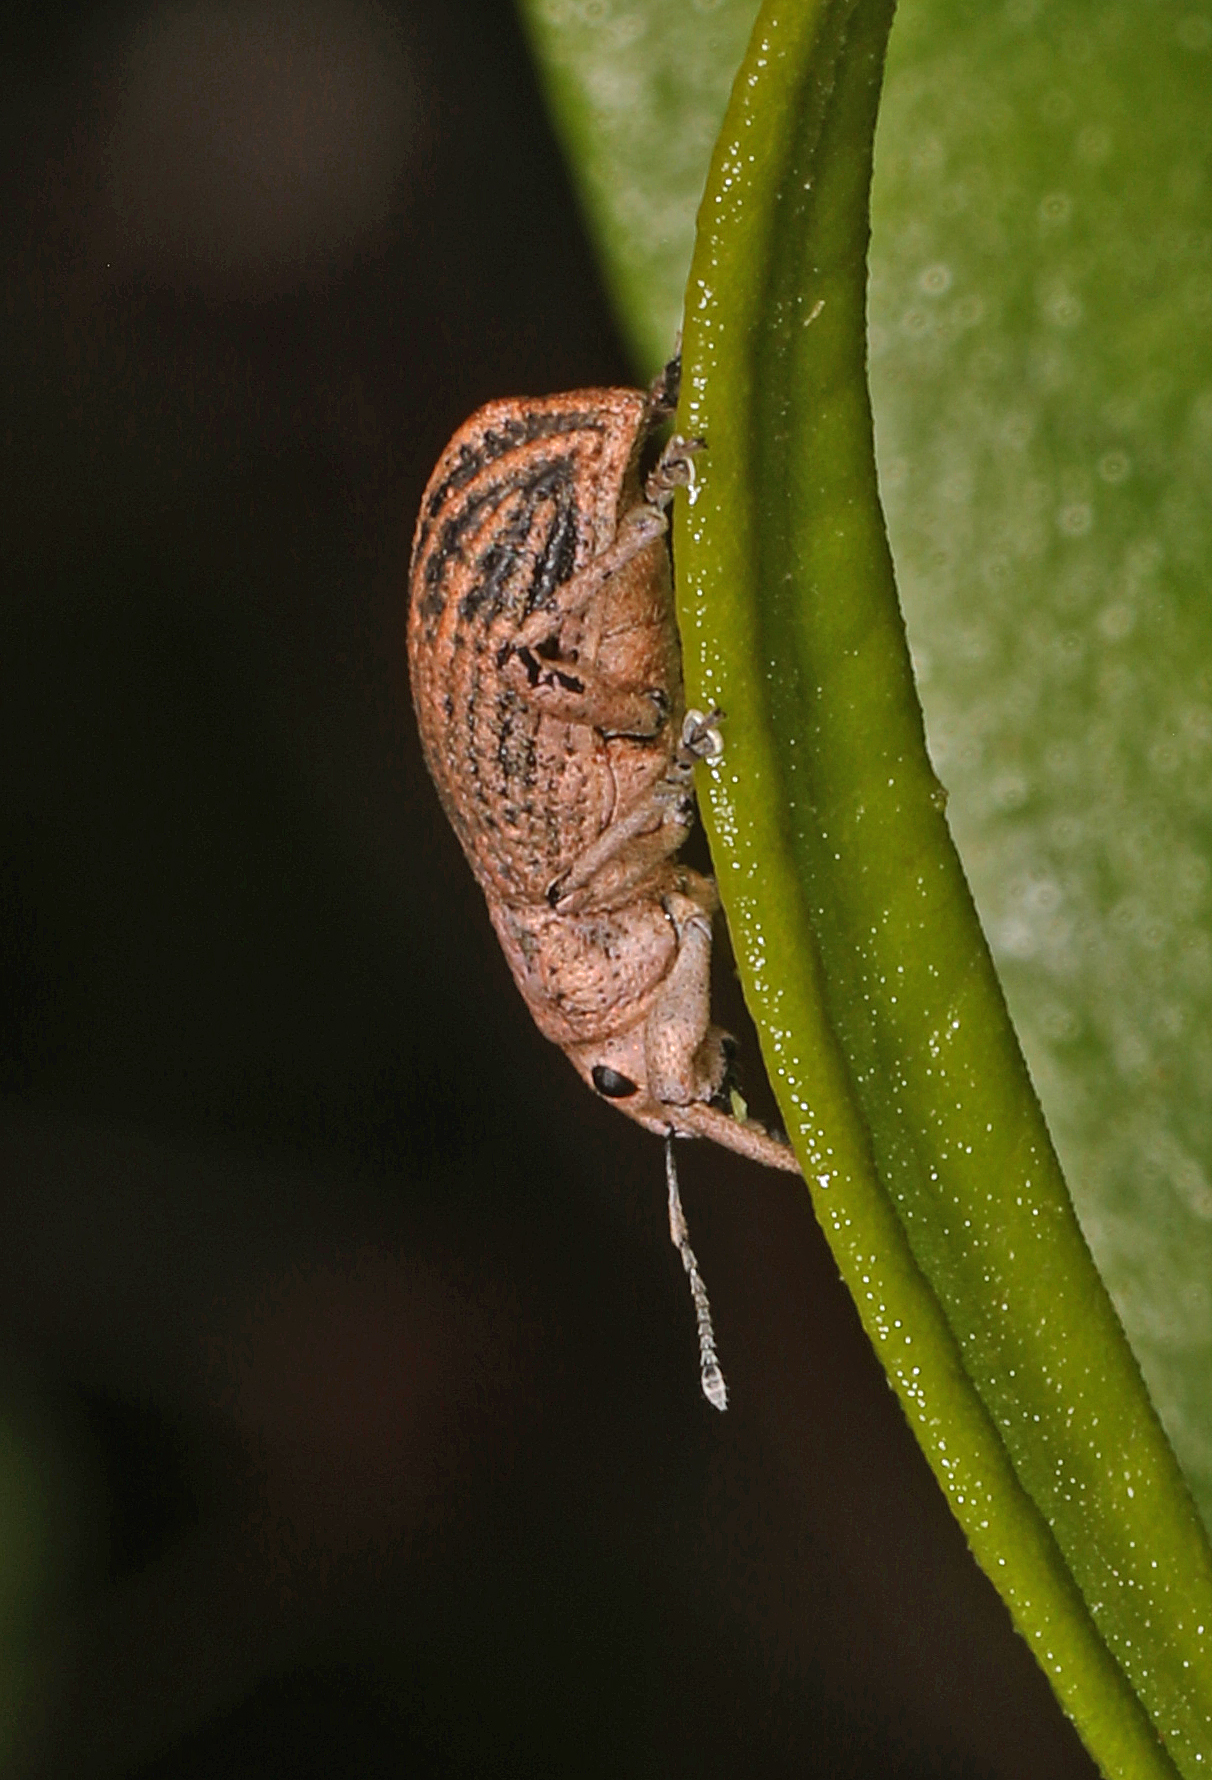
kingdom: Animalia
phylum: Arthropoda
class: Insecta
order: Coleoptera
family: Curculionidae
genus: Artipus
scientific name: Artipus floridanus
